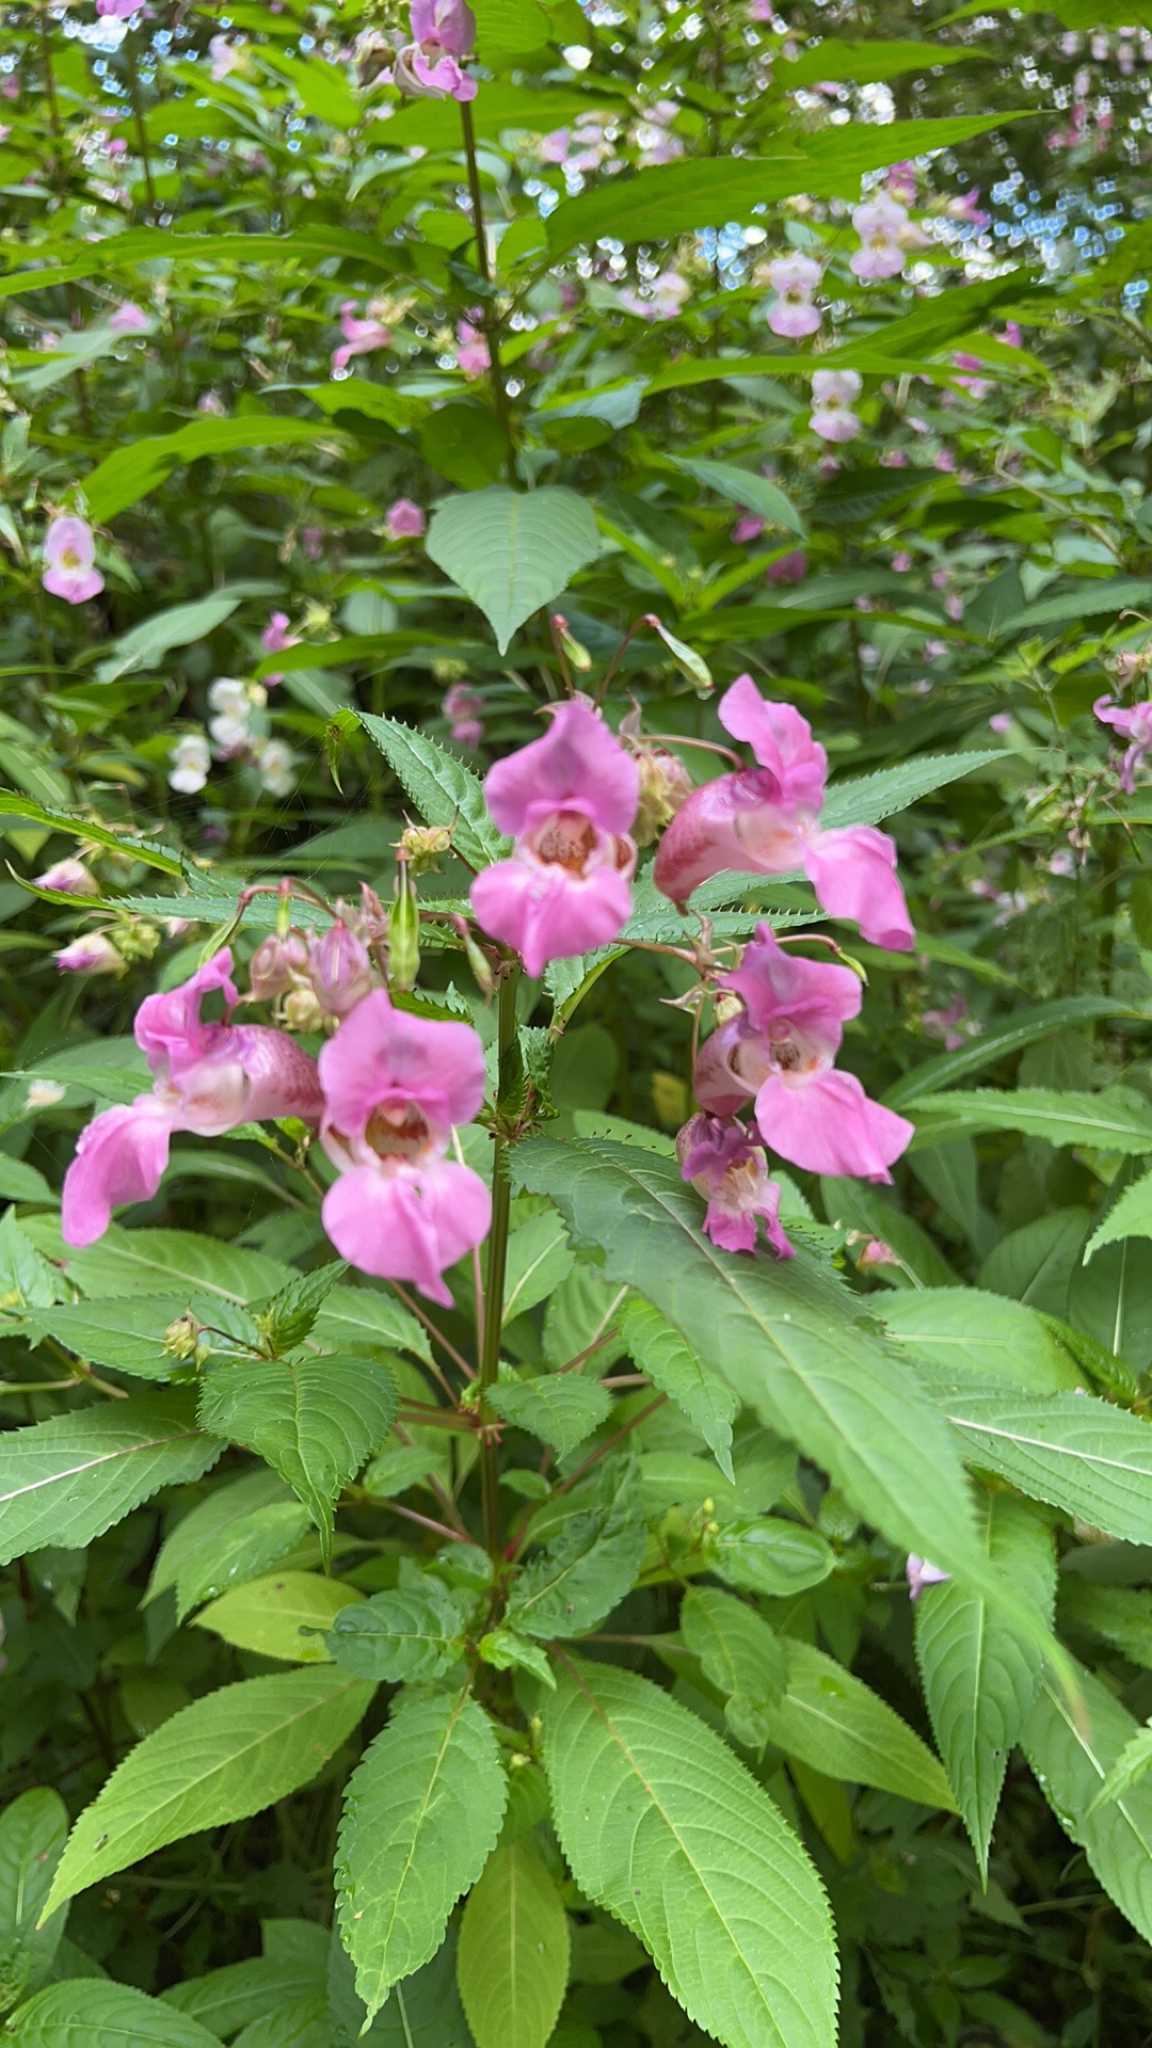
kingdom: Plantae
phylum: Tracheophyta
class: Magnoliopsida
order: Ericales
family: Balsaminaceae
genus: Impatiens
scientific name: Impatiens glandulifera
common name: Himalayan balsam
